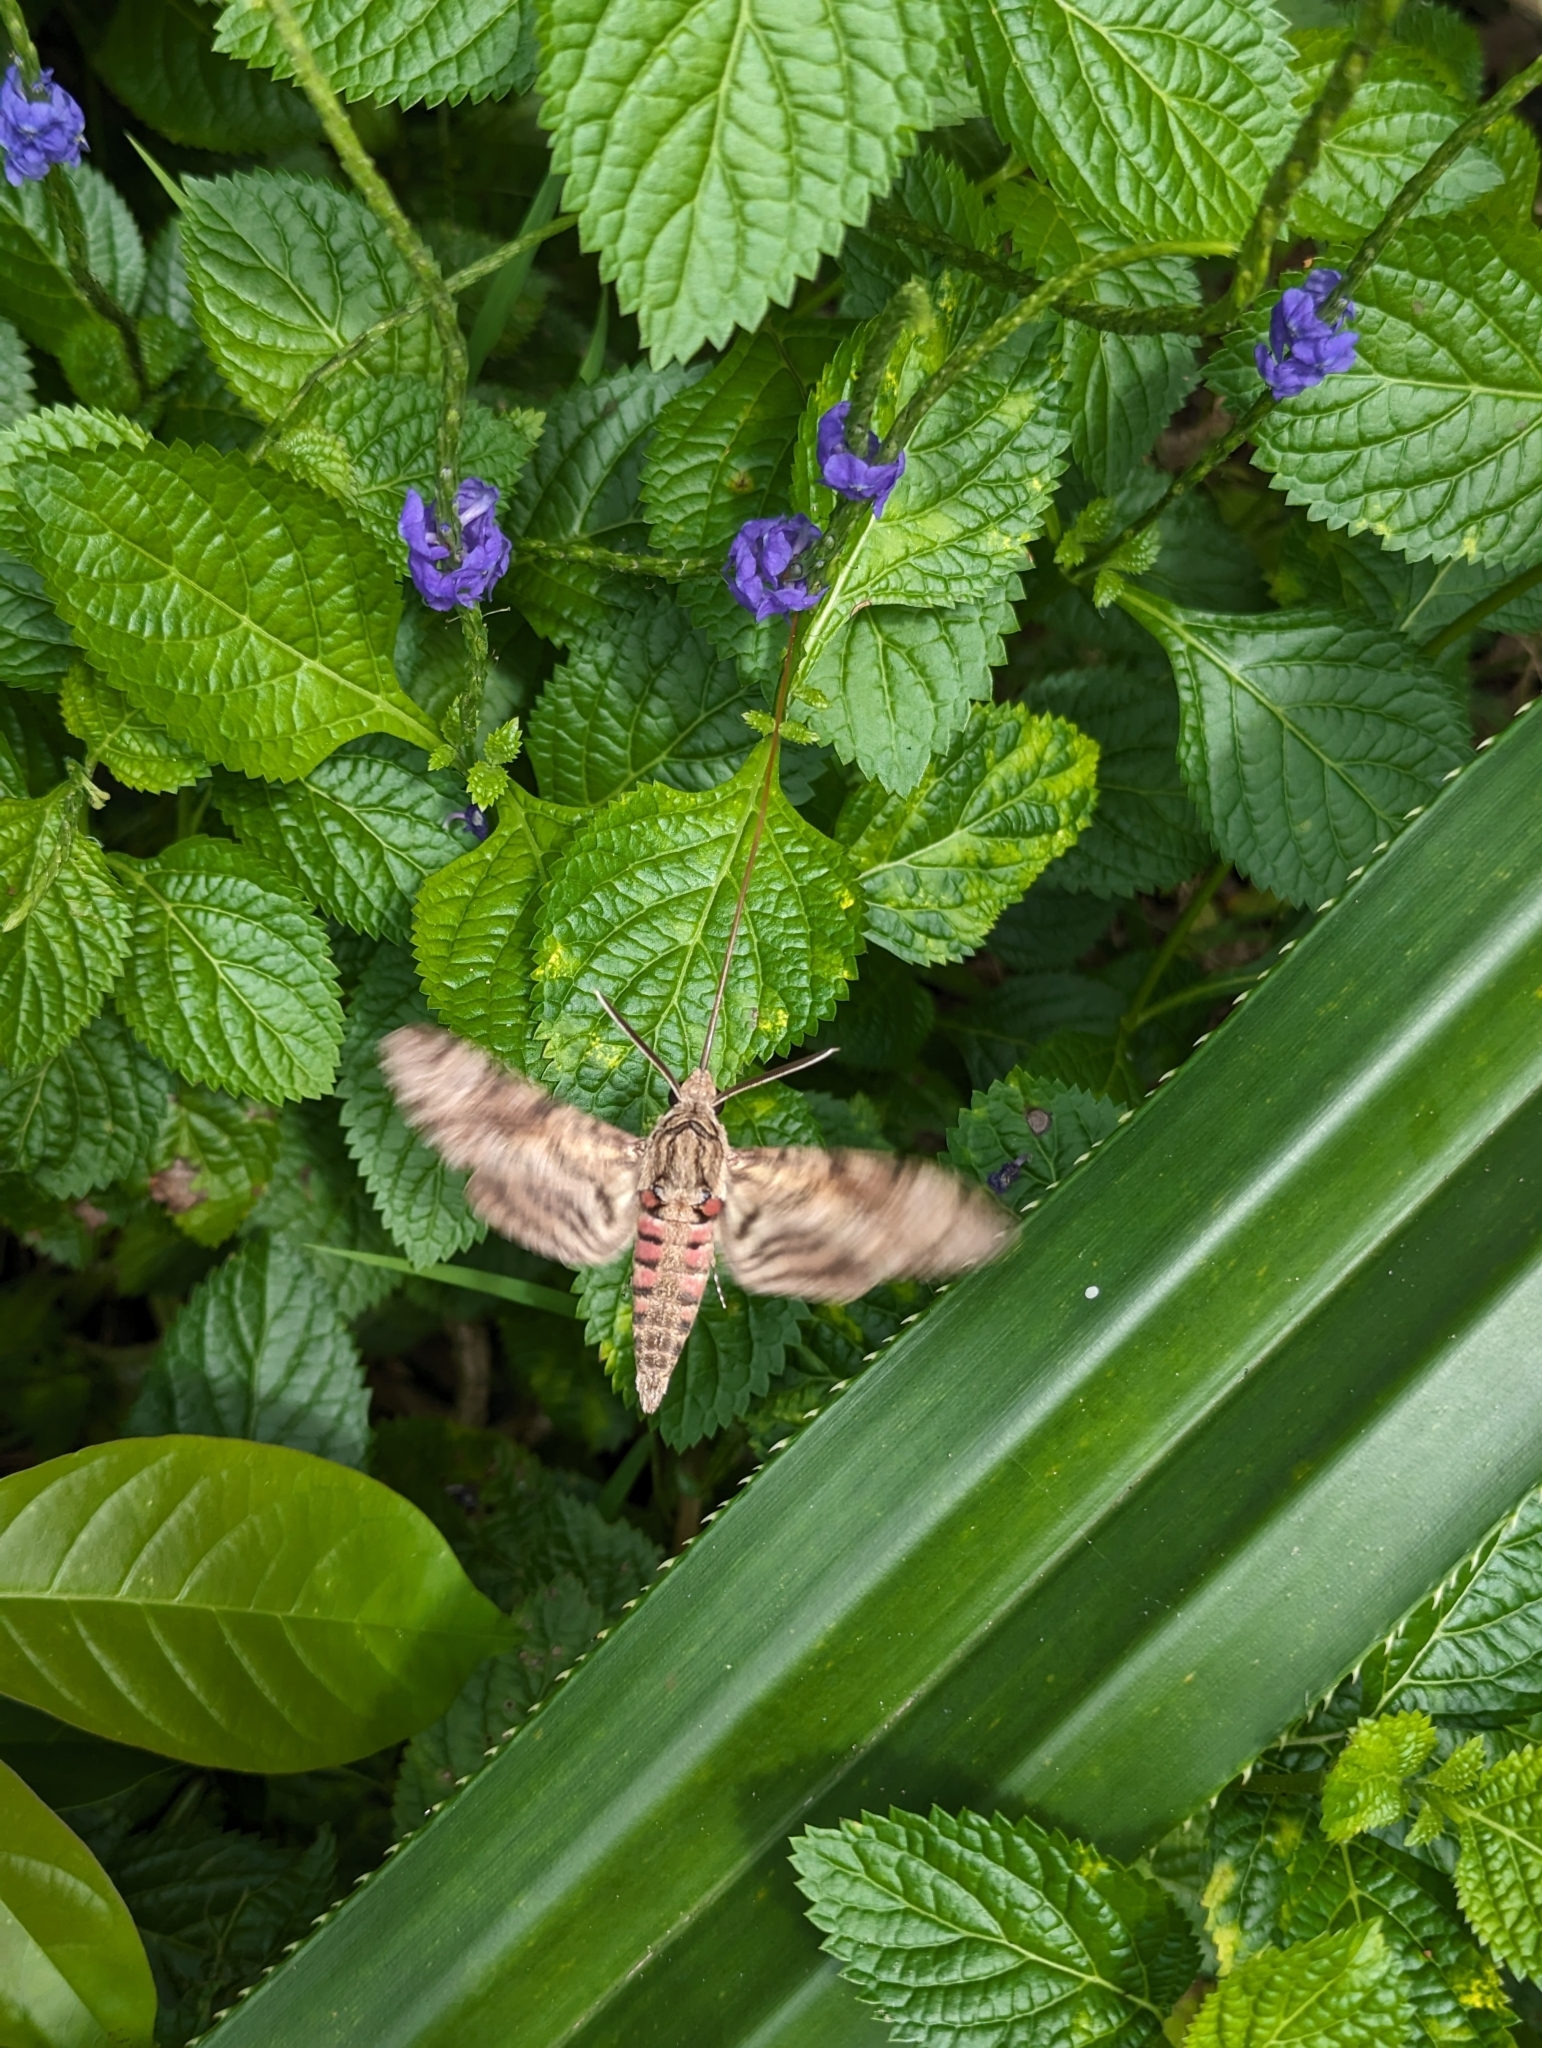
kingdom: Animalia
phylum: Arthropoda
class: Insecta
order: Lepidoptera
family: Sphingidae
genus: Agrius
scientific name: Agrius convolvuli
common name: Convolvulus hawkmoth
